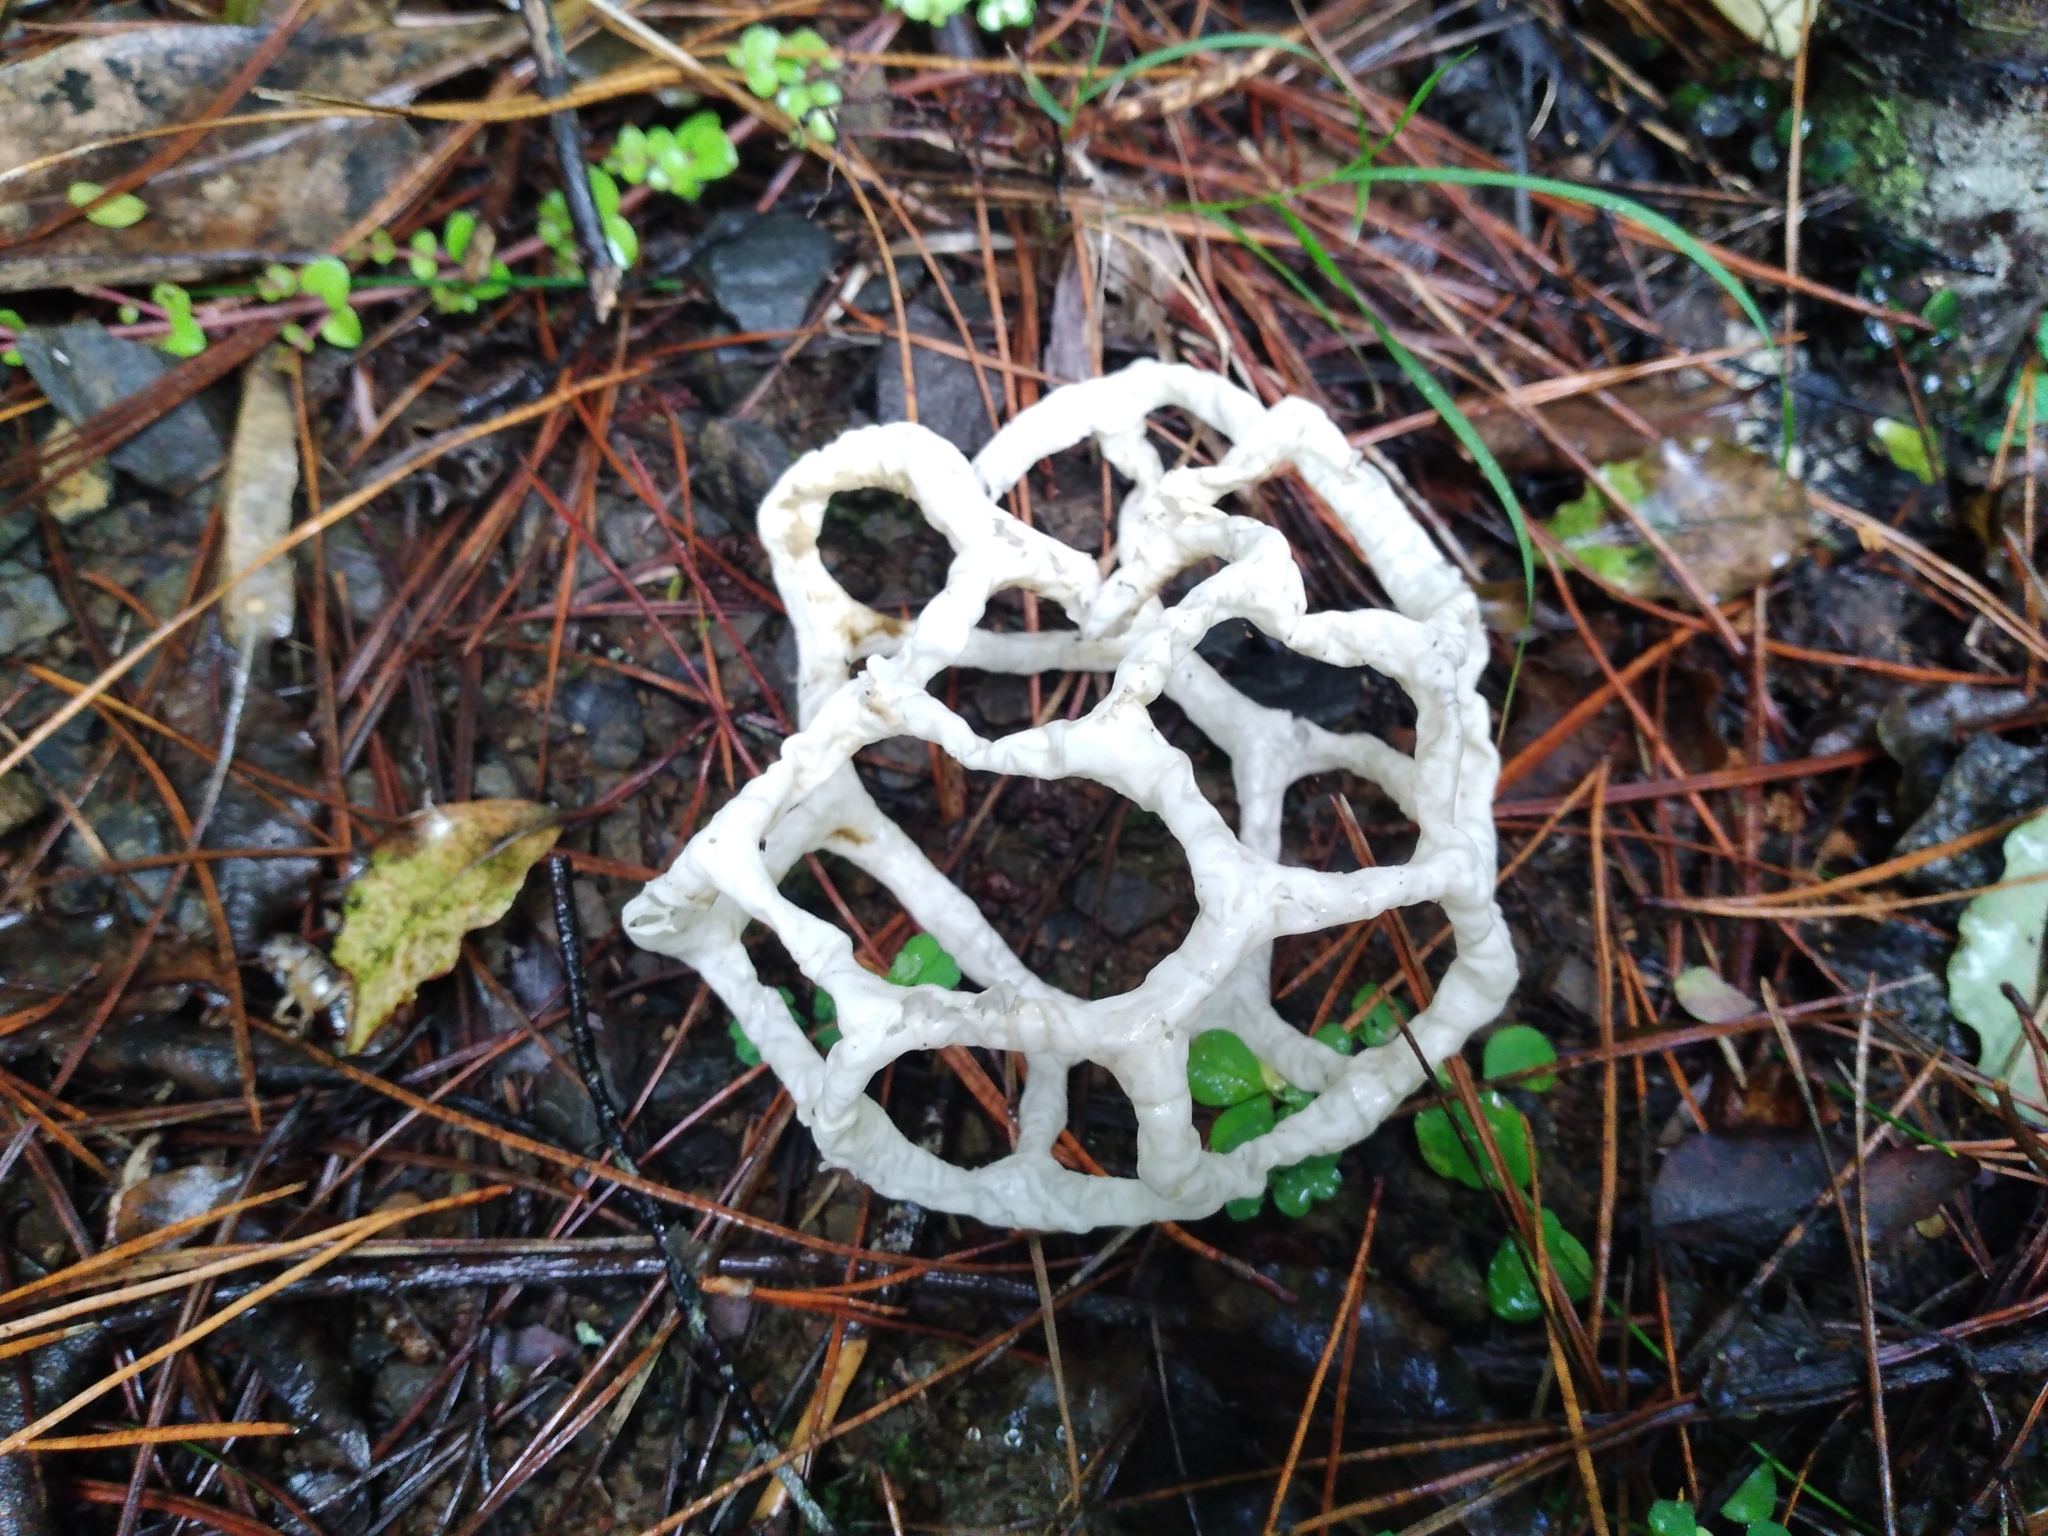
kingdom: Fungi
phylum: Basidiomycota
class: Agaricomycetes
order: Phallales
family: Phallaceae
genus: Ileodictyon
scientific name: Ileodictyon cibarium
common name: Basket fungus
